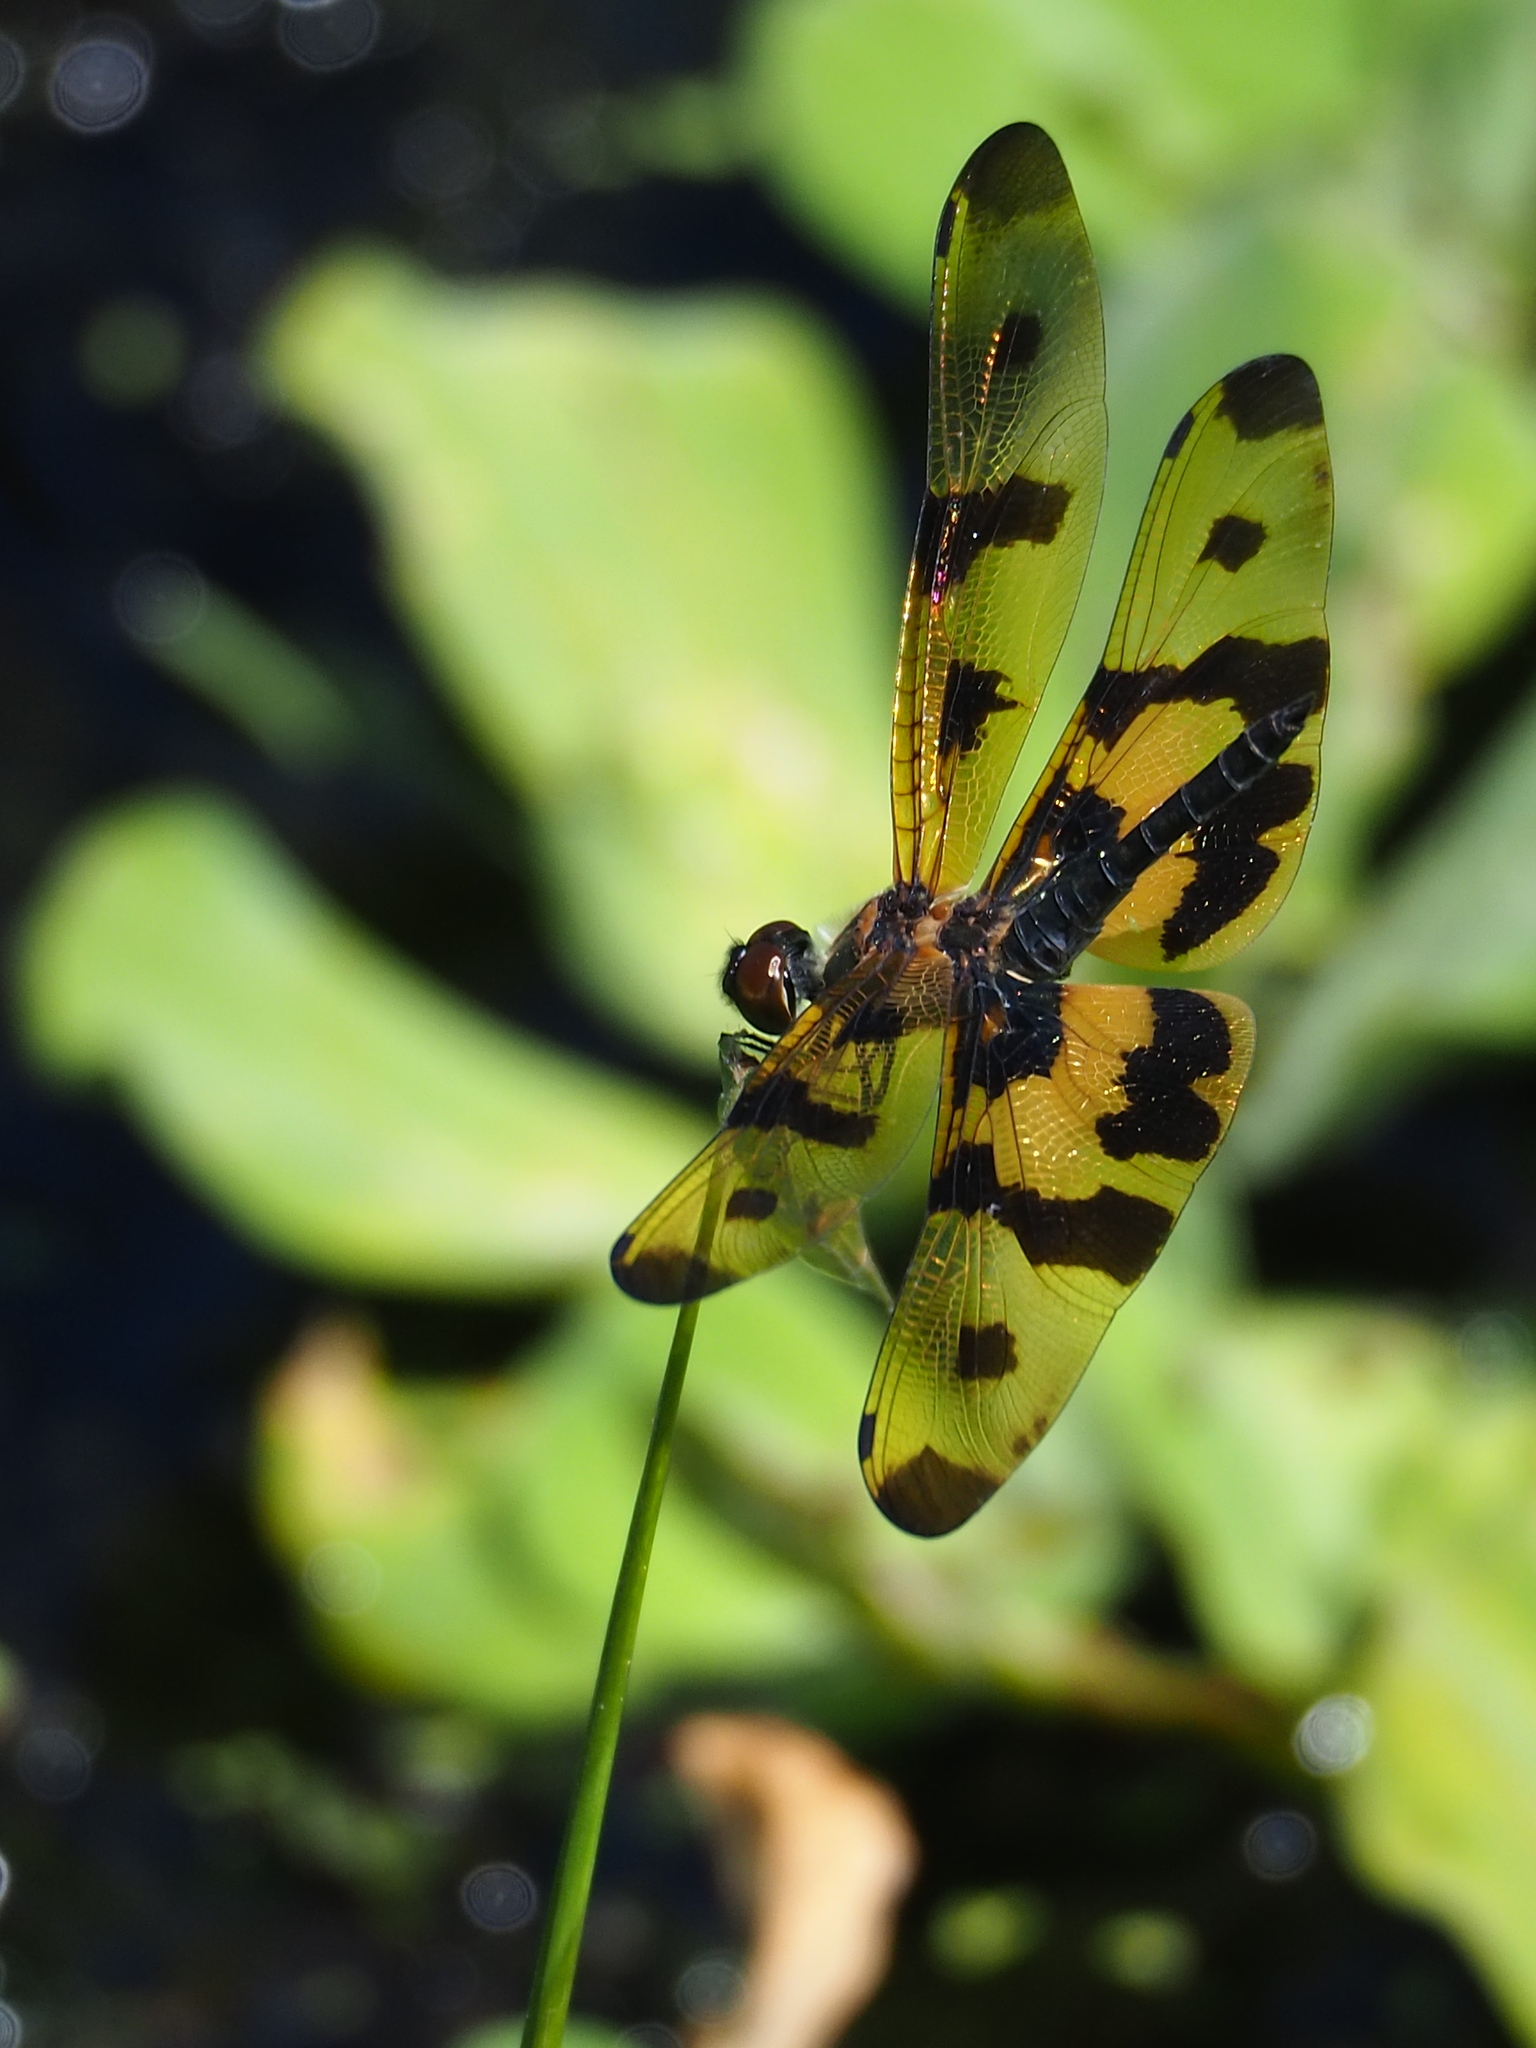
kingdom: Animalia
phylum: Arthropoda
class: Insecta
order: Odonata
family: Libellulidae
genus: Rhyothemis
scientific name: Rhyothemis variegata
